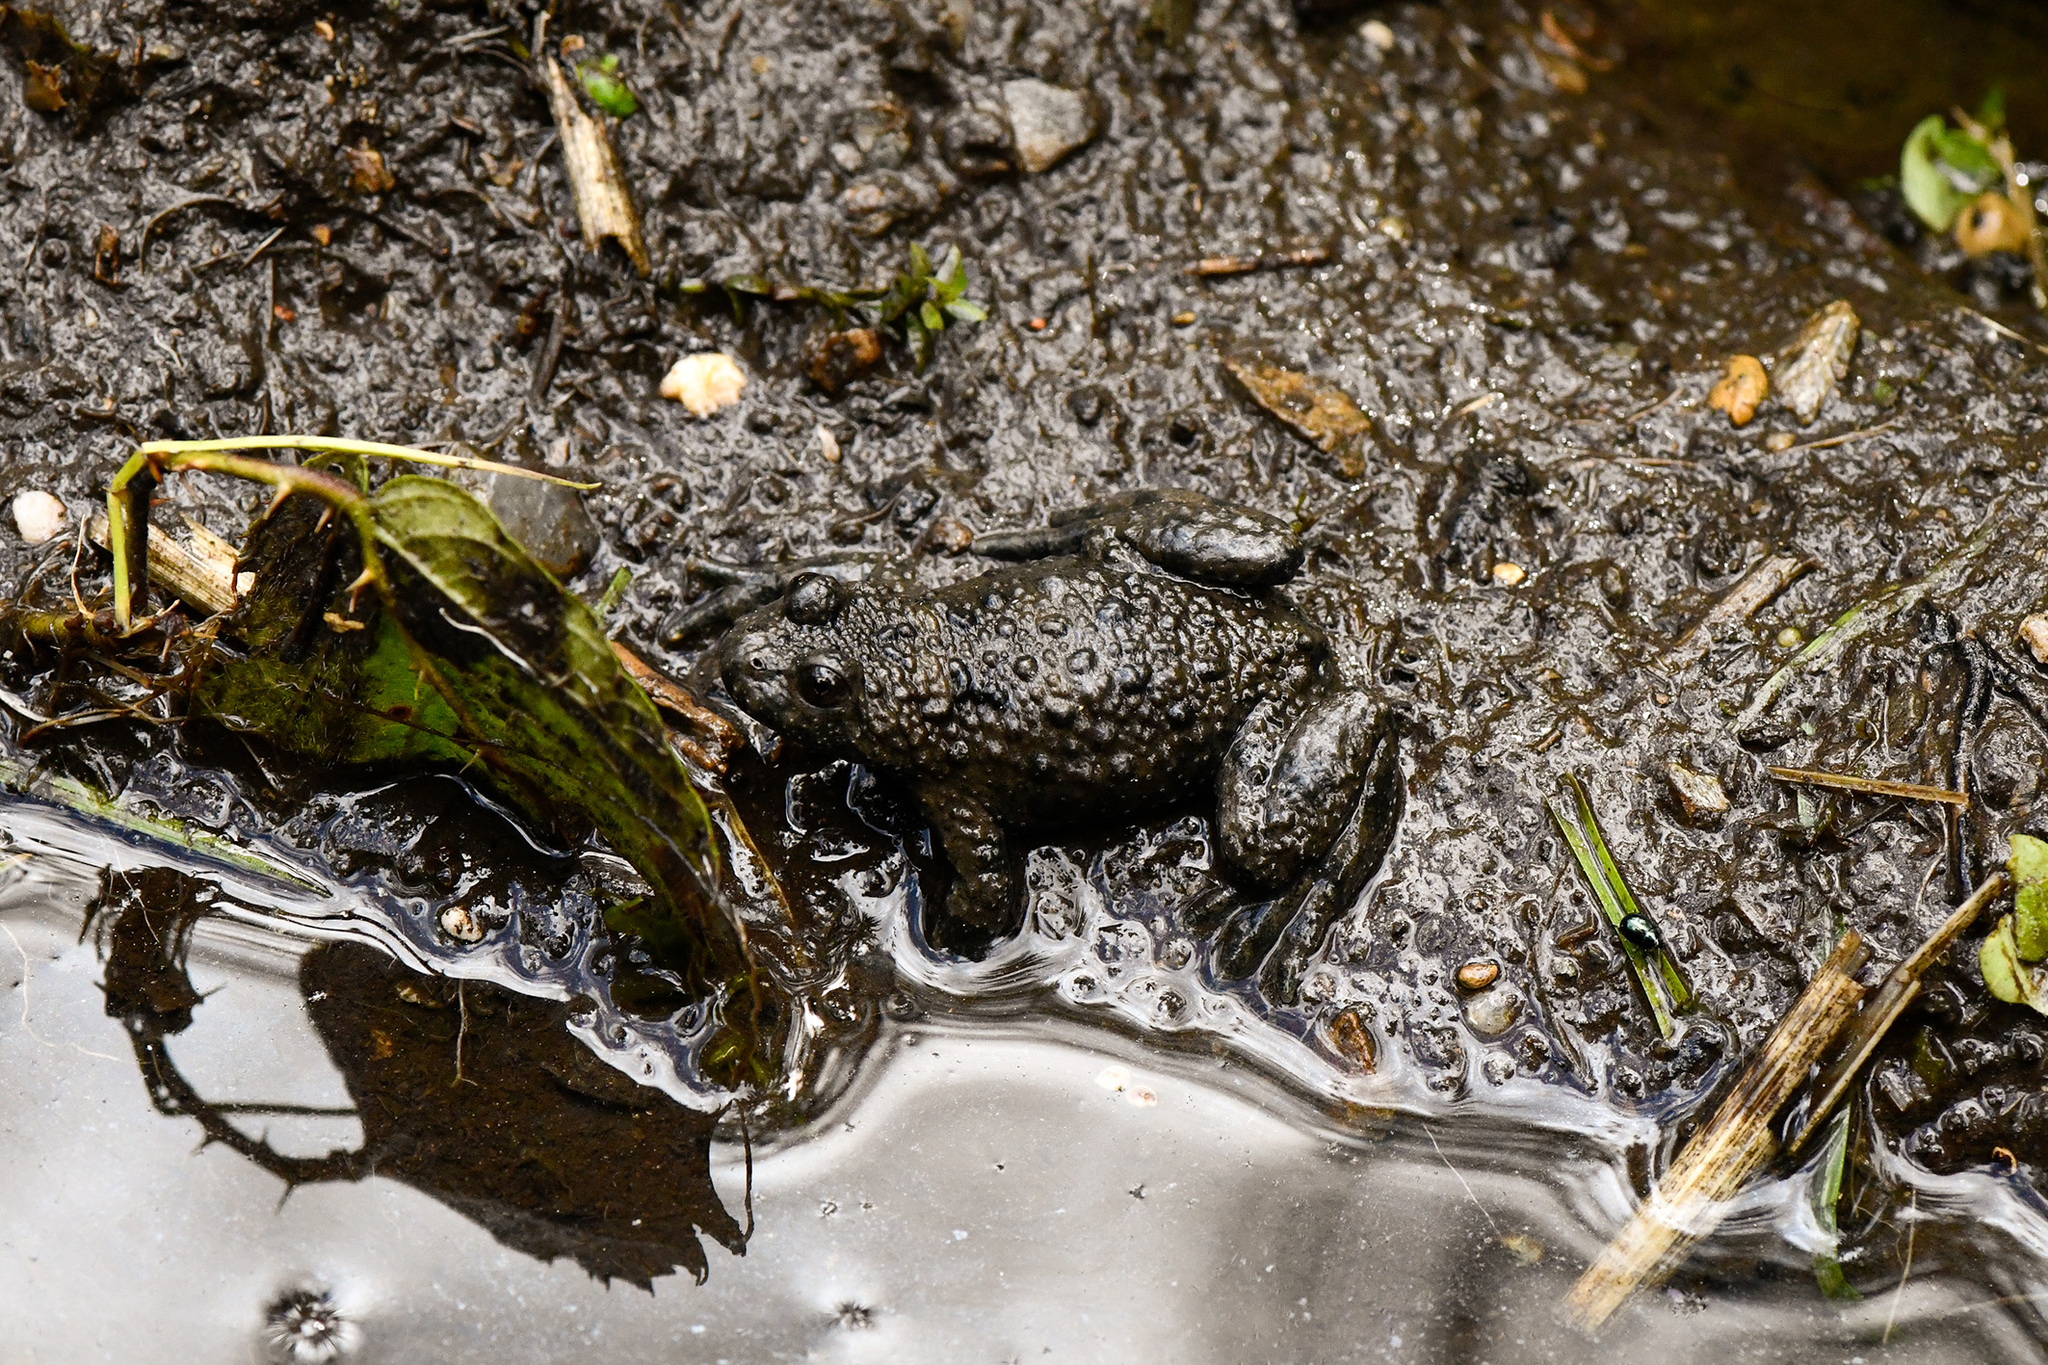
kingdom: Animalia
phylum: Chordata
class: Amphibia
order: Anura
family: Bombinatoridae
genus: Bombina
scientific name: Bombina variegata
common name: Yellow-bellied toad
